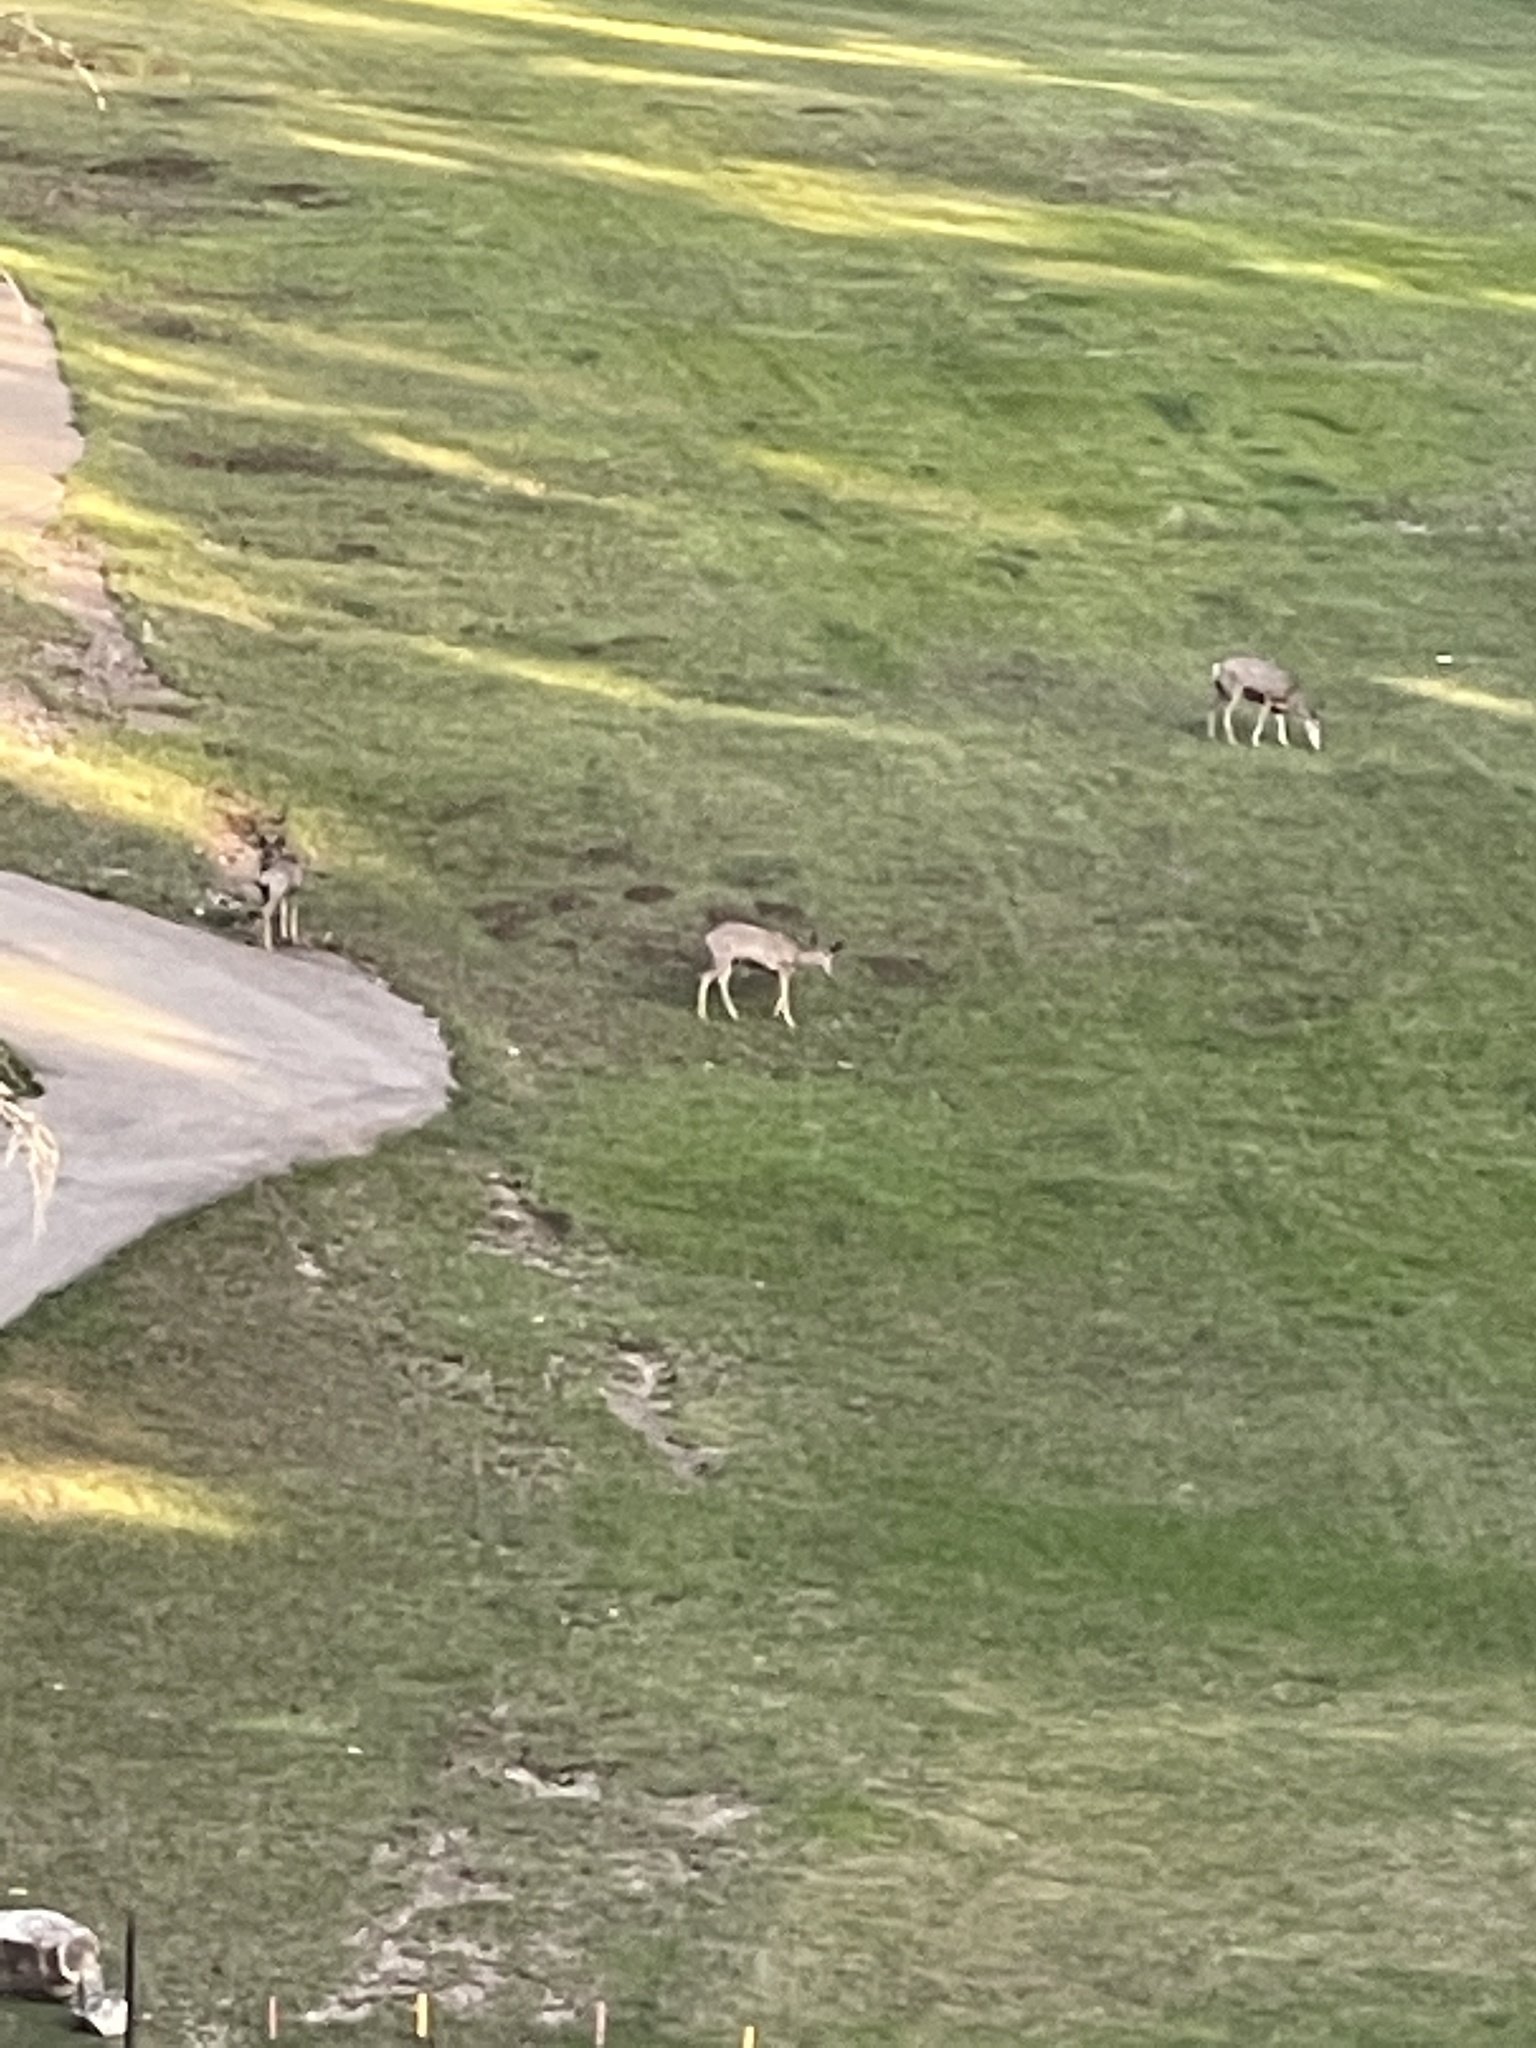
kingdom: Animalia
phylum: Chordata
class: Mammalia
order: Artiodactyla
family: Cervidae
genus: Odocoileus
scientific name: Odocoileus hemionus
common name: Mule deer
